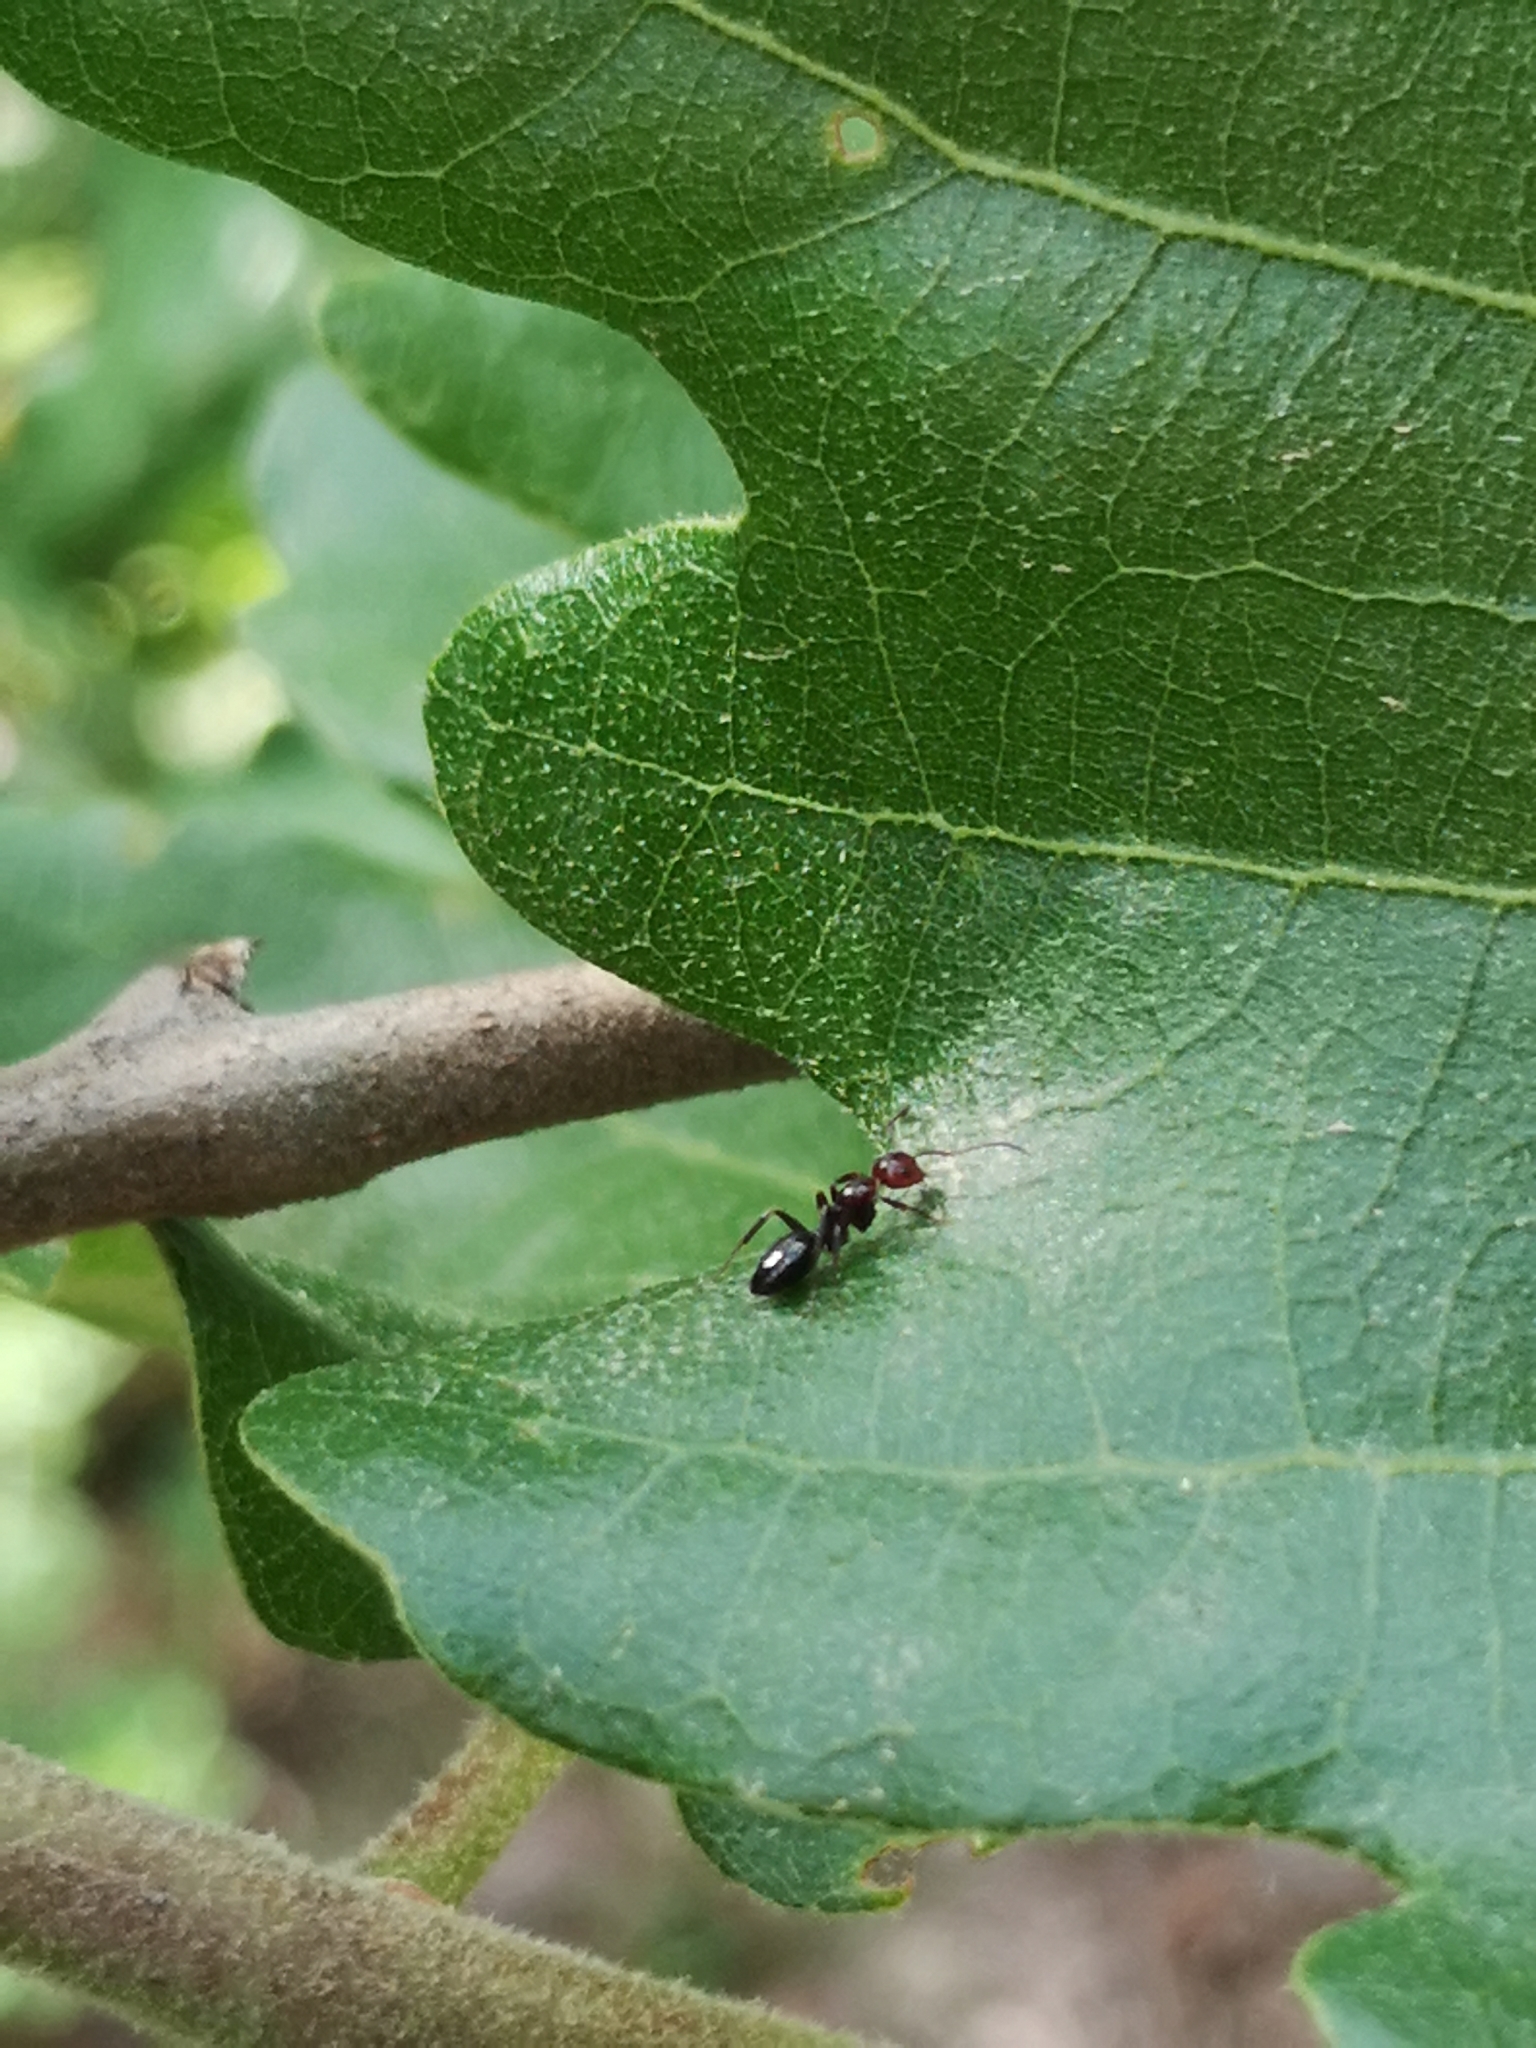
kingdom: Animalia
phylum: Arthropoda
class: Insecta
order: Hymenoptera
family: Formicidae
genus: Camponotus
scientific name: Camponotus lateralis
